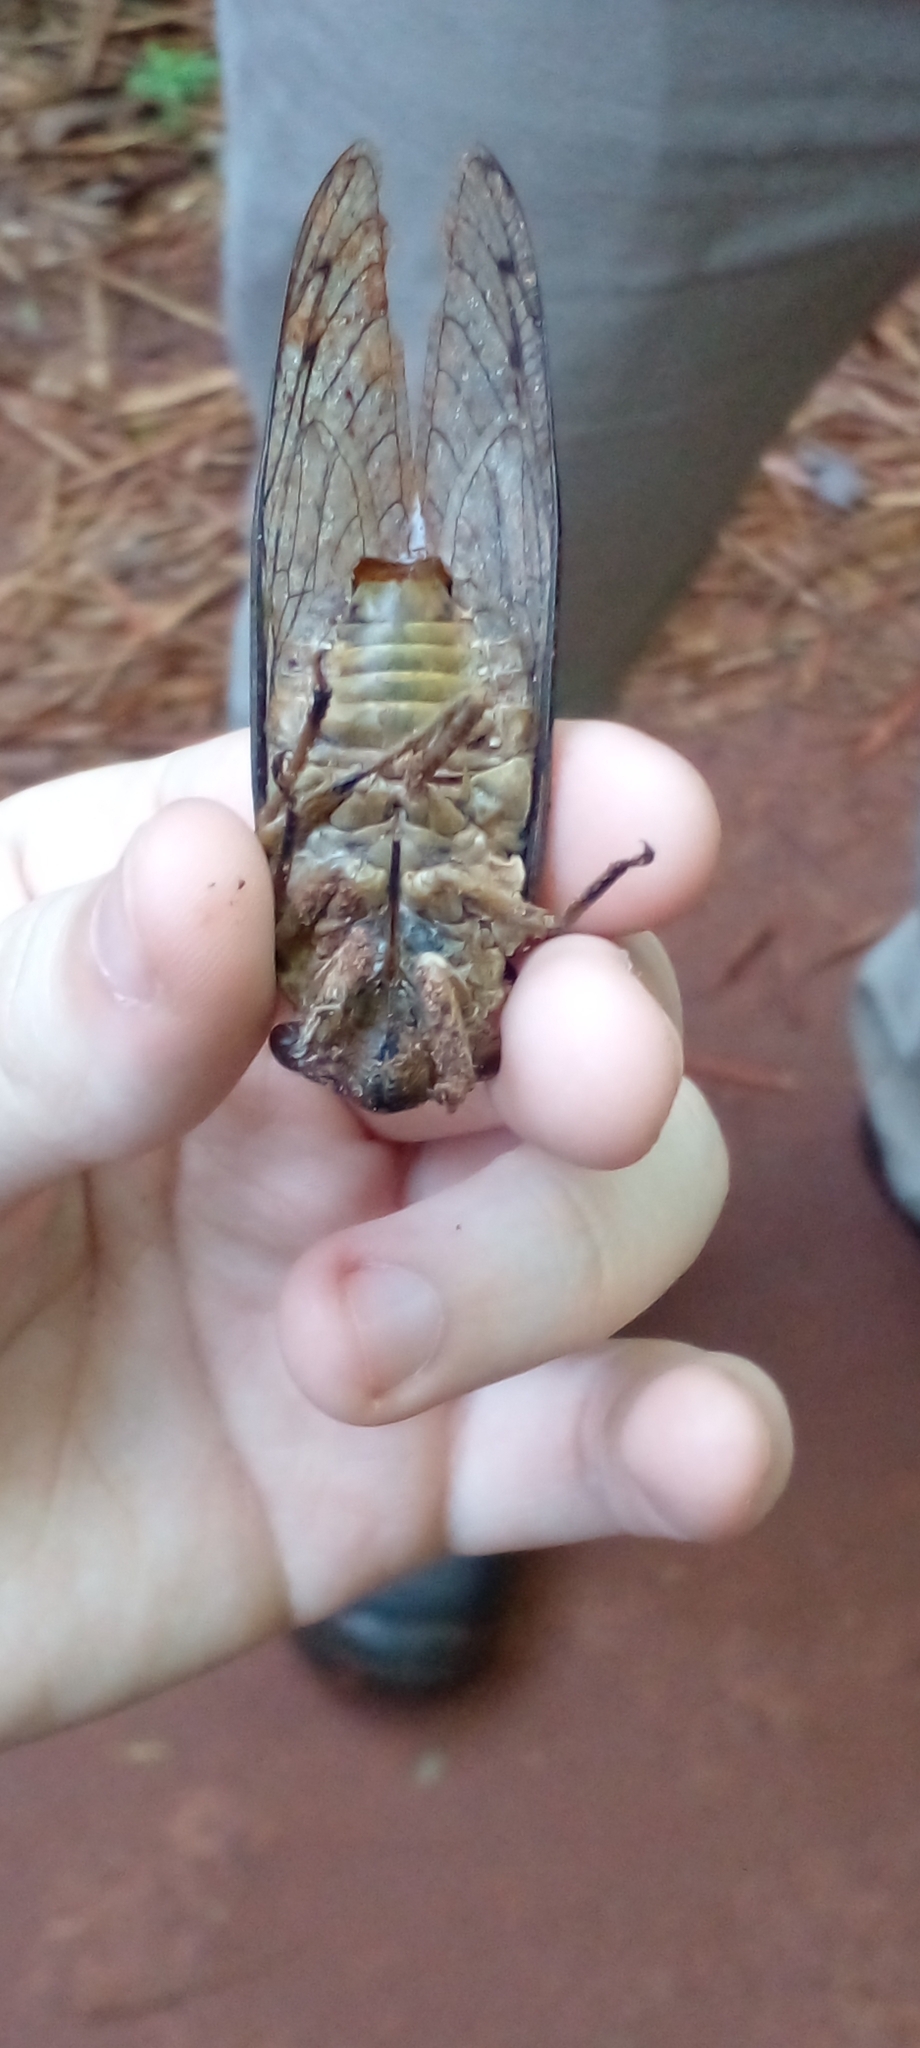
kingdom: Animalia
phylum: Arthropoda
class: Insecta
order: Hemiptera
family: Cicadidae
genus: Quesada
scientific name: Quesada gigas
